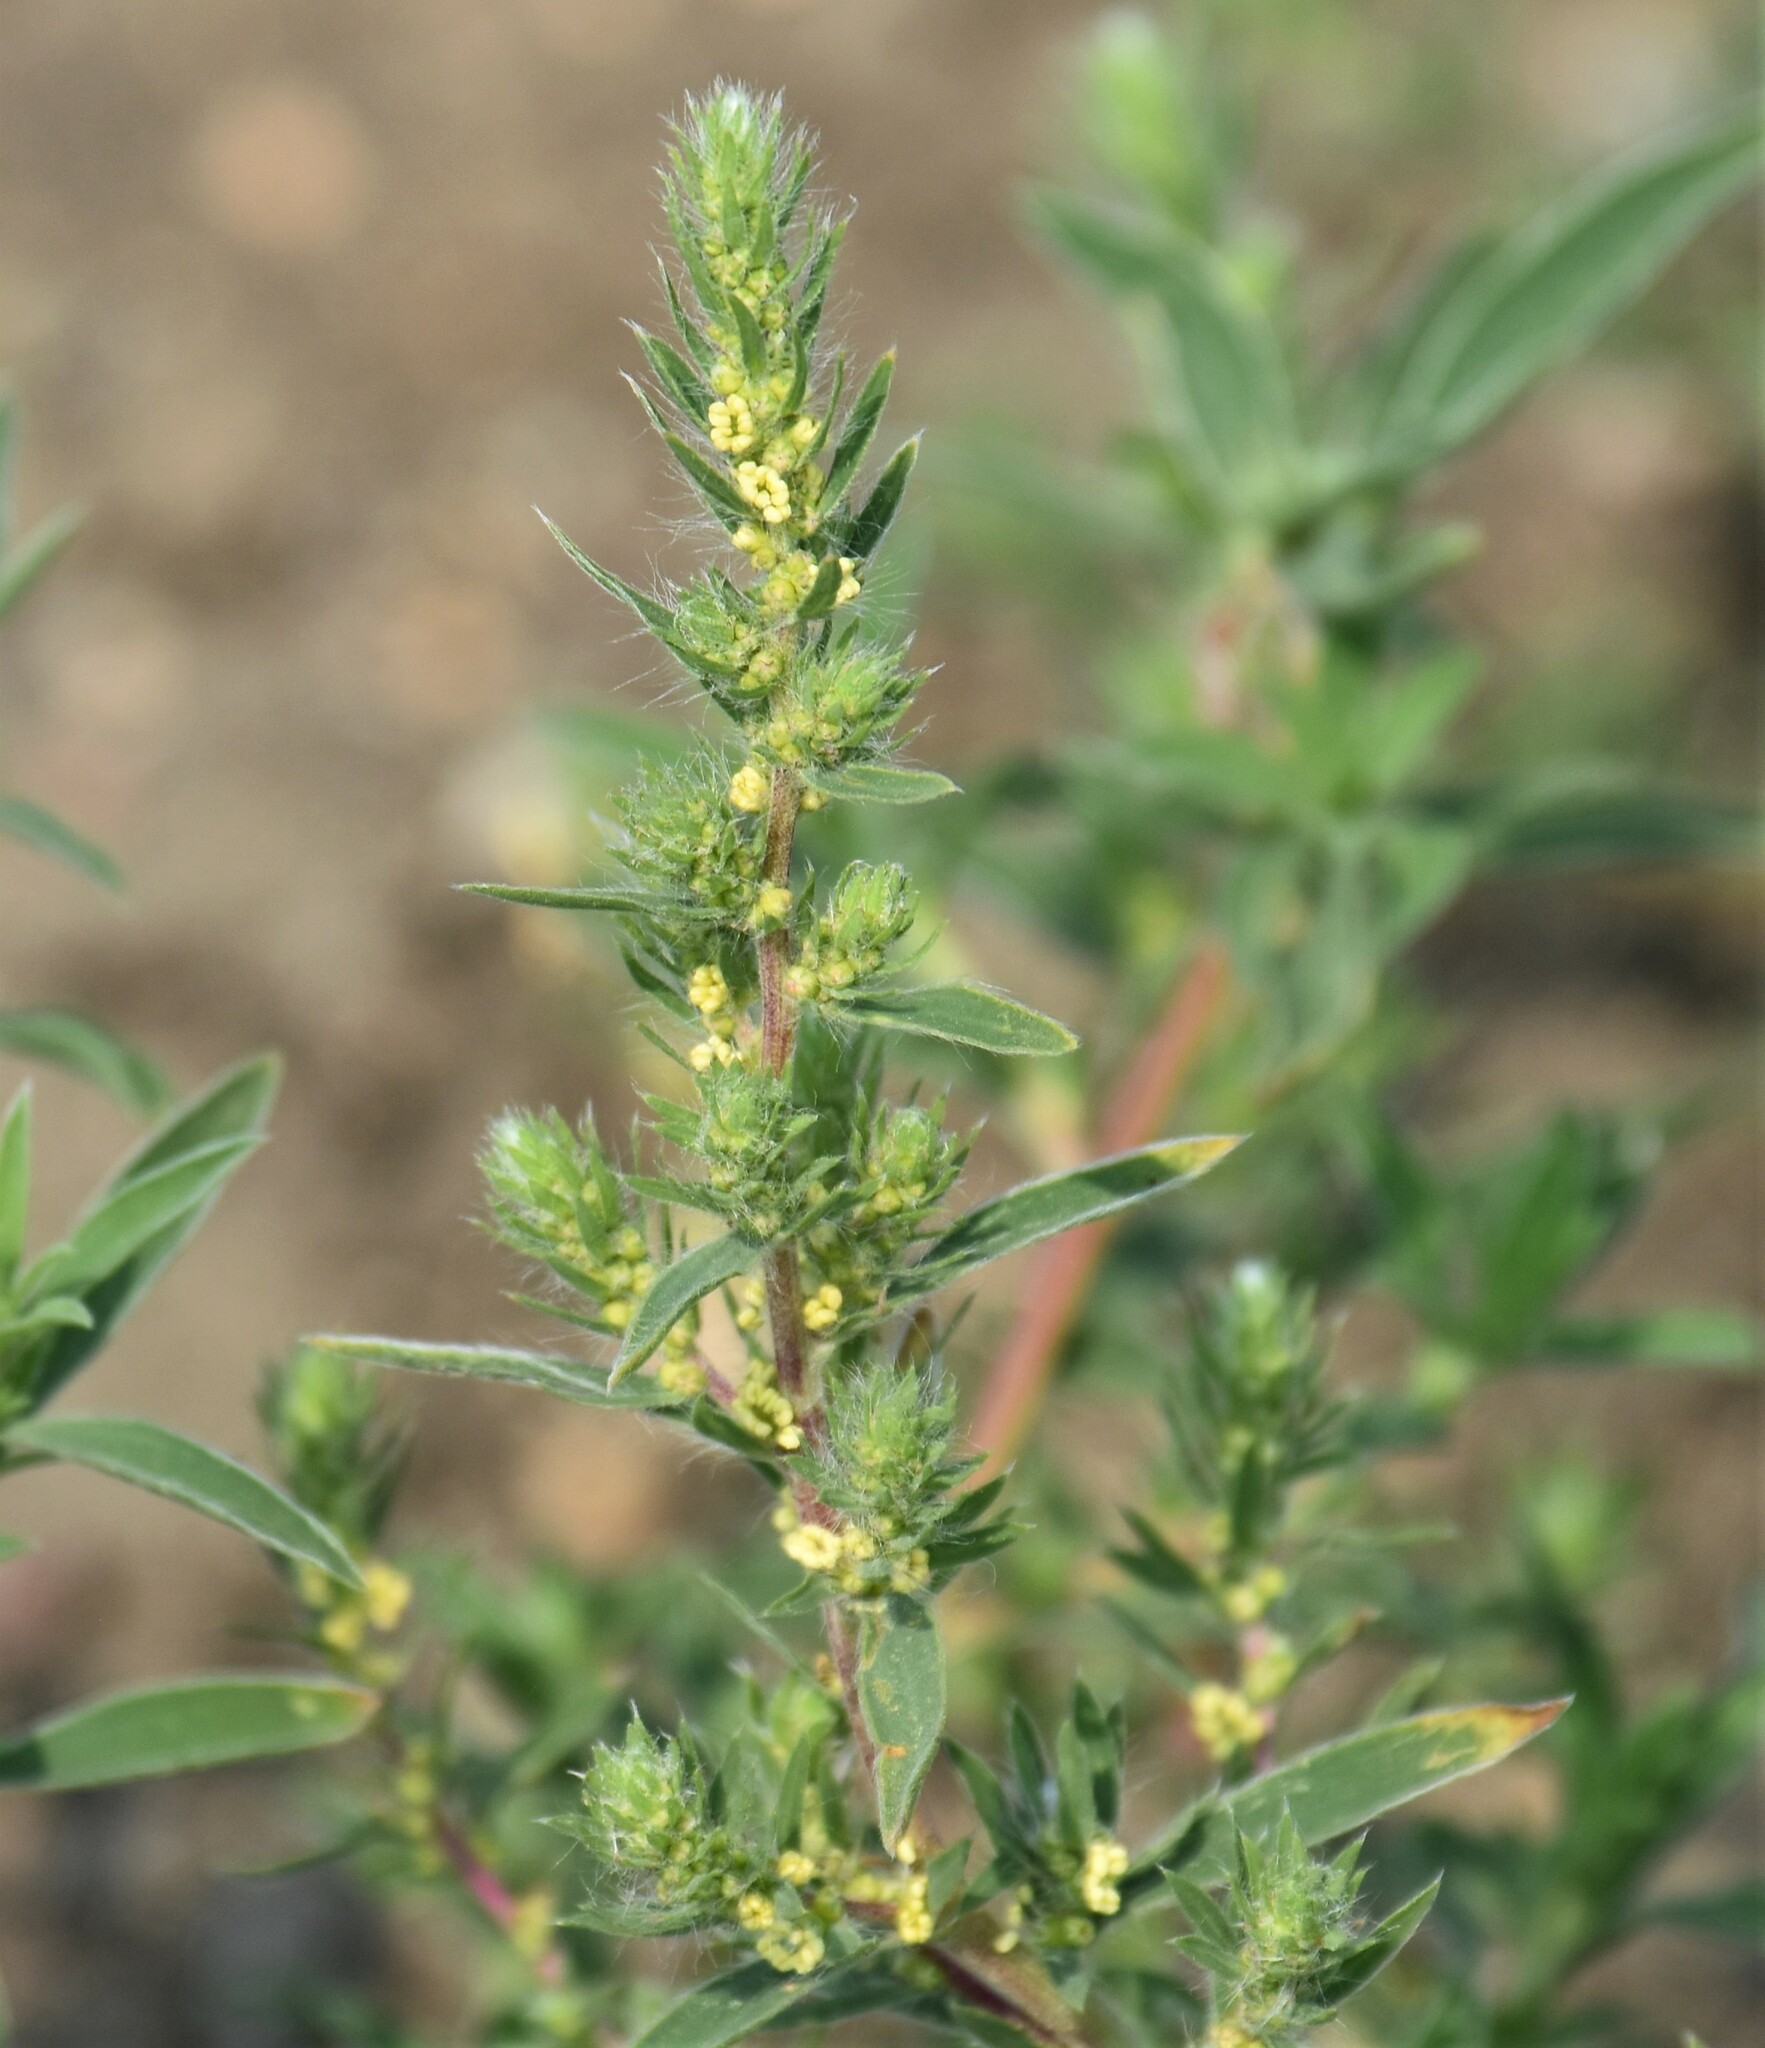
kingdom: Plantae
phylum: Tracheophyta
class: Magnoliopsida
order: Caryophyllales
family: Amaranthaceae
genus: Bassia
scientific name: Bassia scoparia
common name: Belvedere
